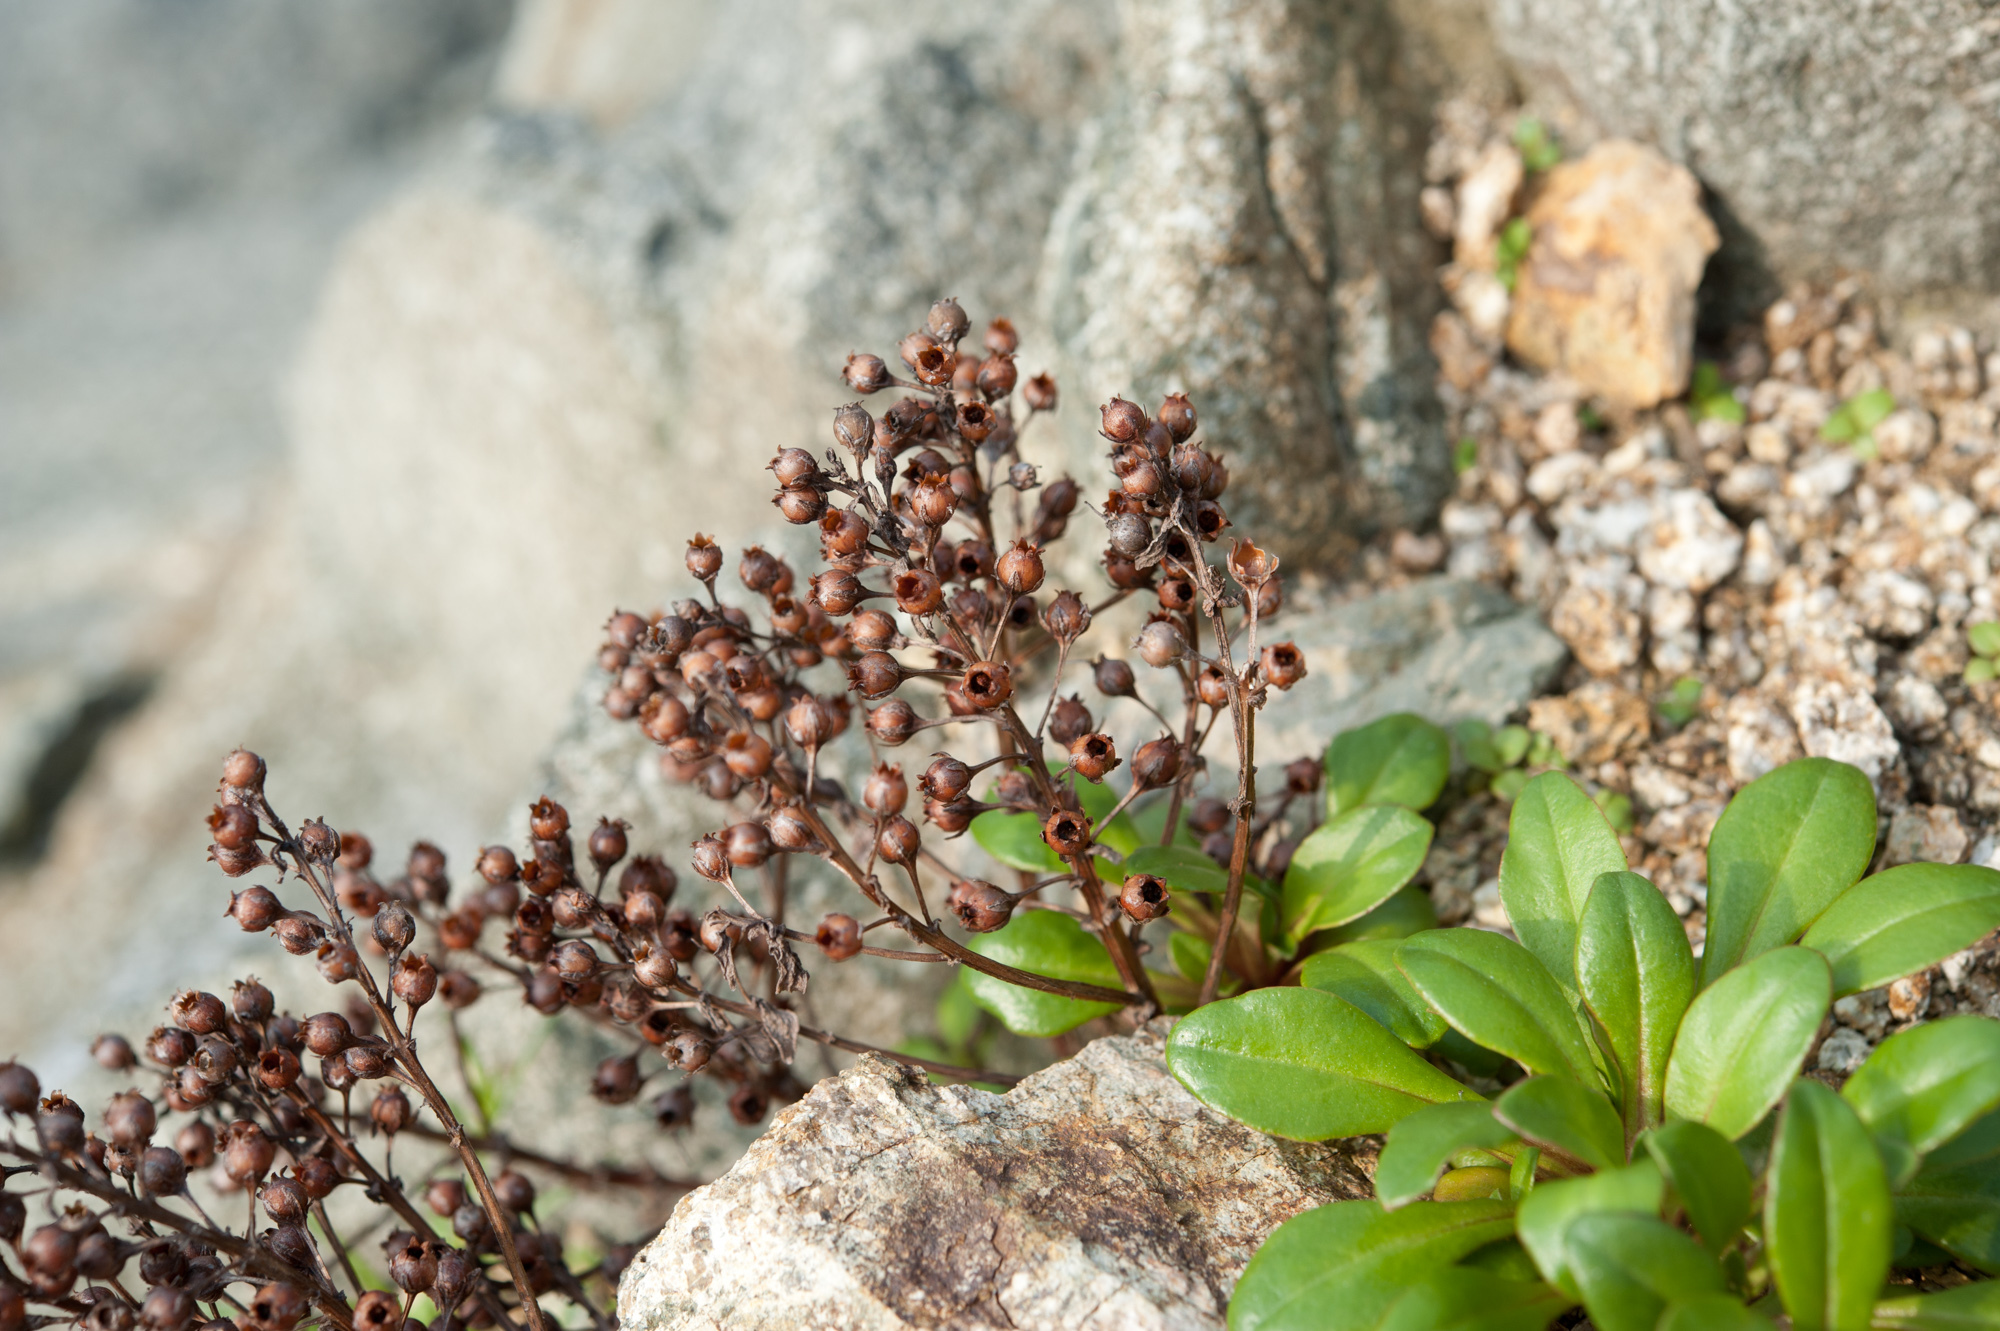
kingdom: Plantae
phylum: Tracheophyta
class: Magnoliopsida
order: Ericales
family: Primulaceae
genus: Lysimachia
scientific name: Lysimachia mauritiana
